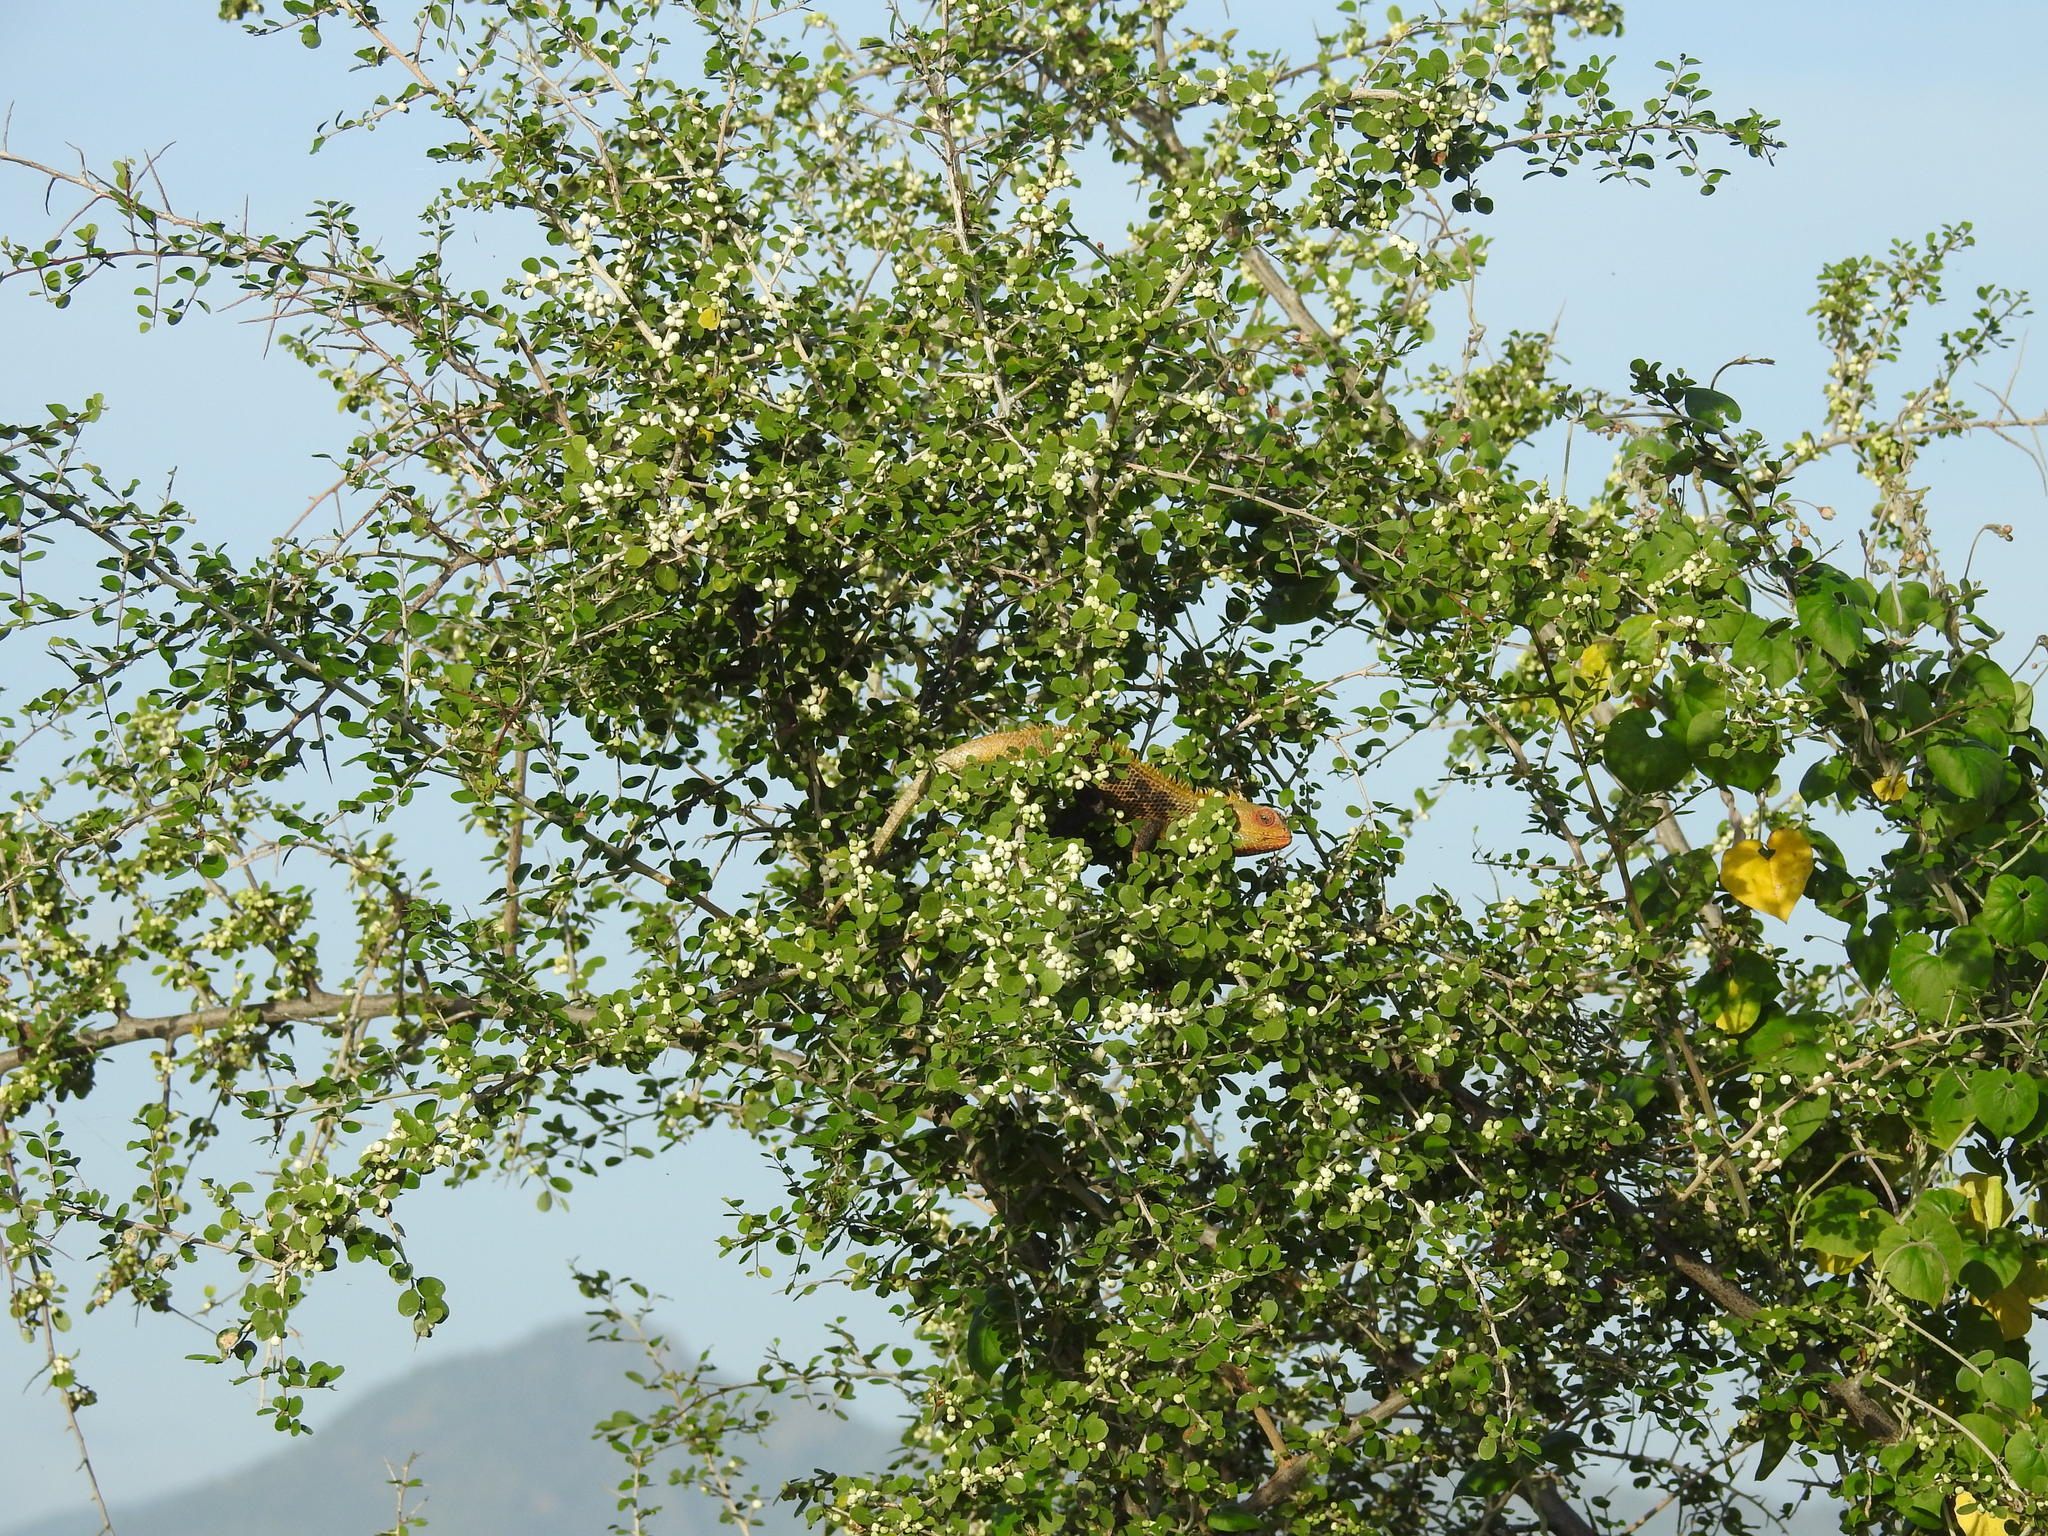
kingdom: Animalia
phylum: Chordata
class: Squamata
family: Agamidae
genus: Calotes
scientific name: Calotes versicolor
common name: Oriental garden lizard
